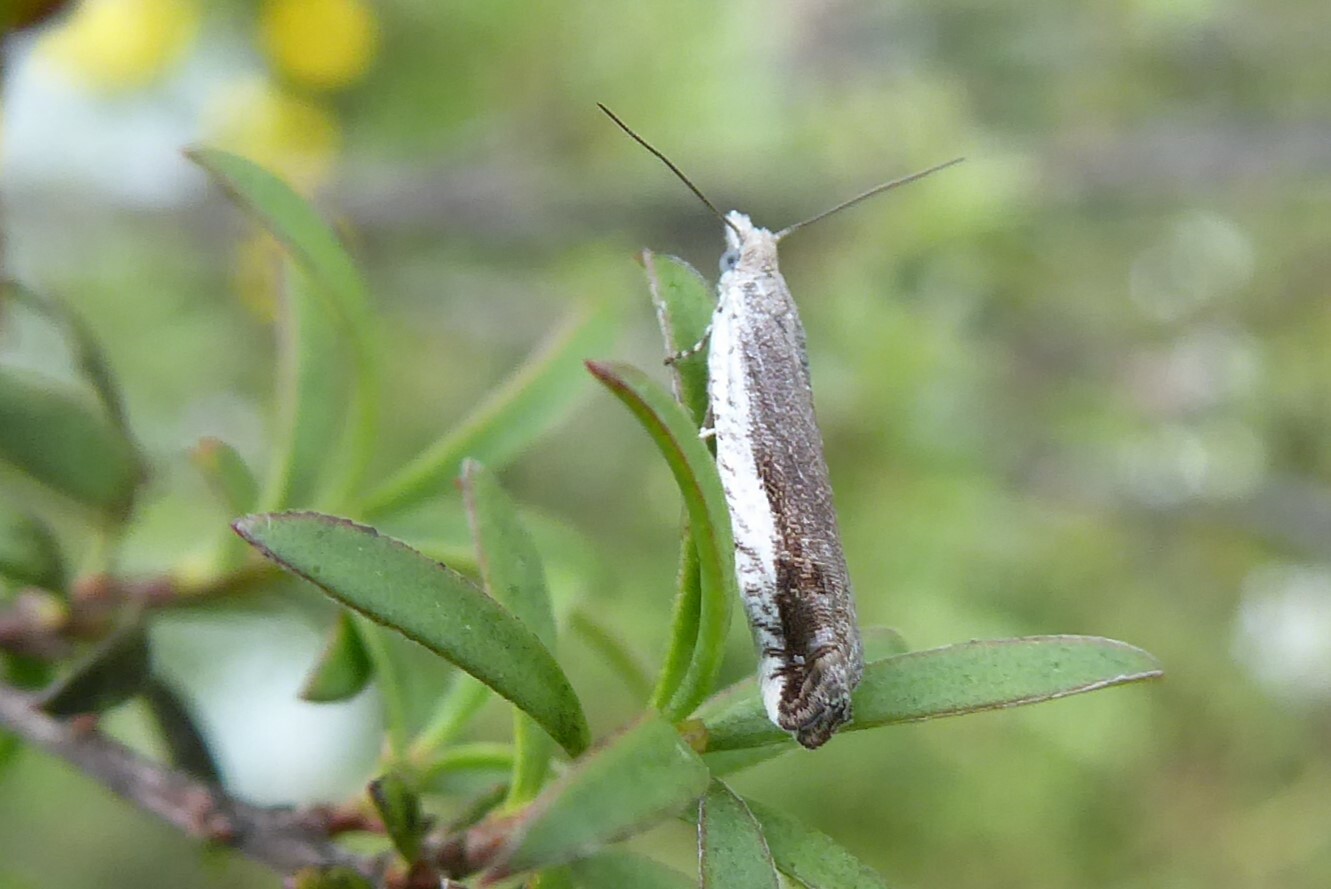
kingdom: Animalia
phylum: Arthropoda
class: Insecta
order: Lepidoptera
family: Tortricidae
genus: Holocola
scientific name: Holocola
